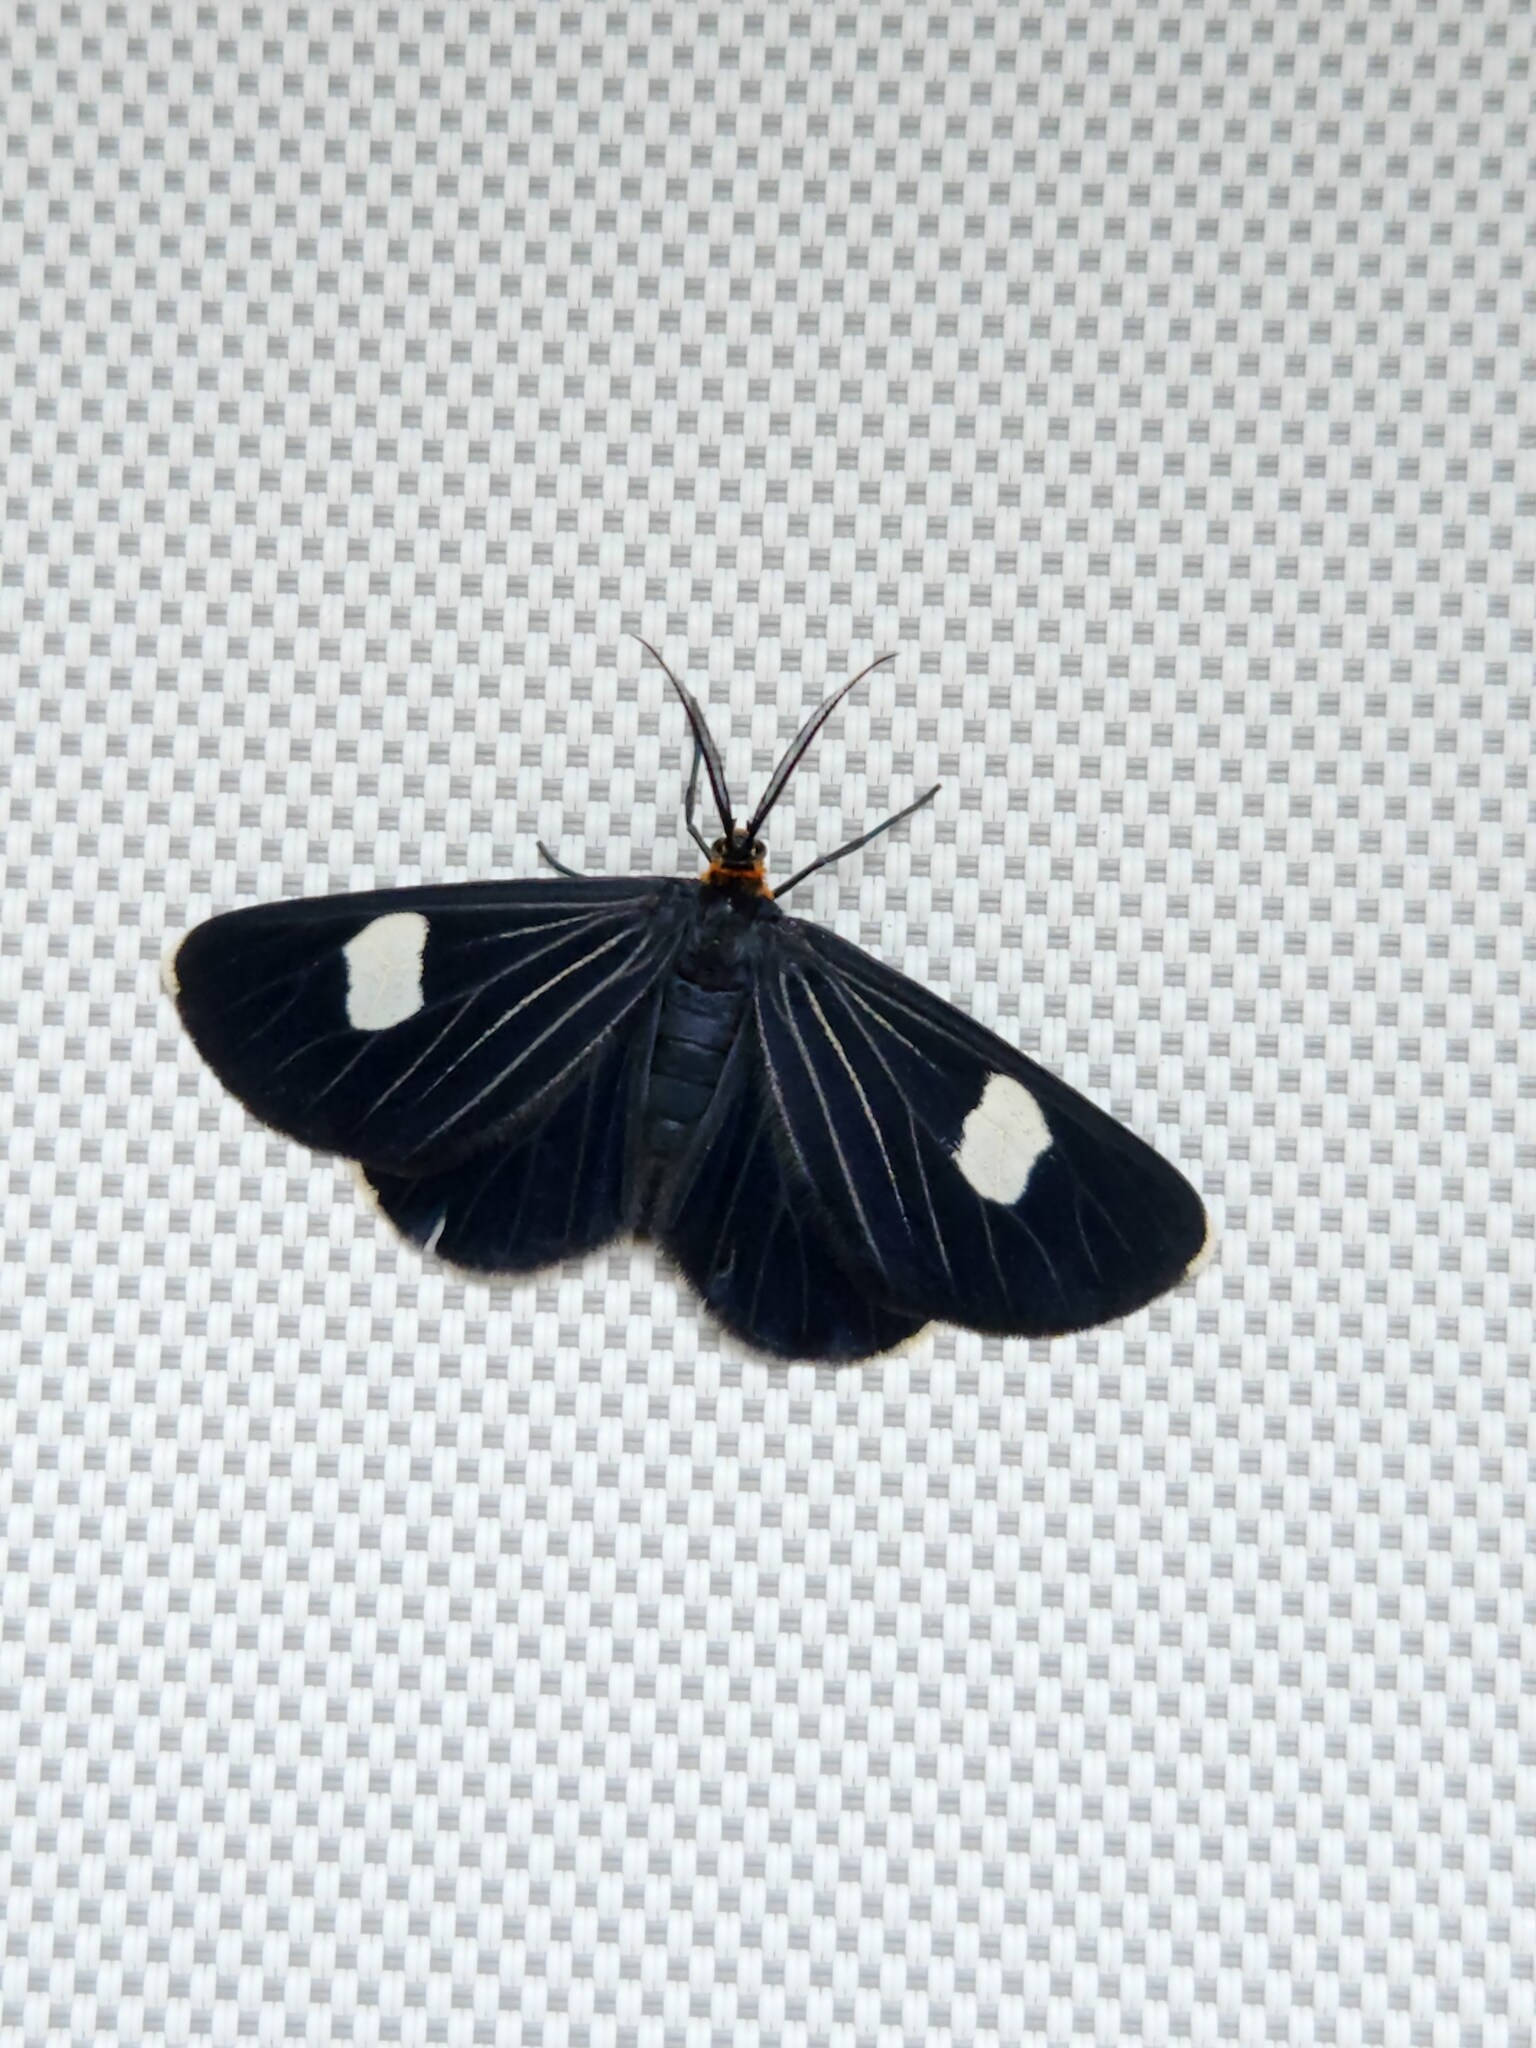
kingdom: Animalia
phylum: Arthropoda
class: Insecta
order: Lepidoptera
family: Geometridae
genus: Melanchroia
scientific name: Melanchroia aterea
